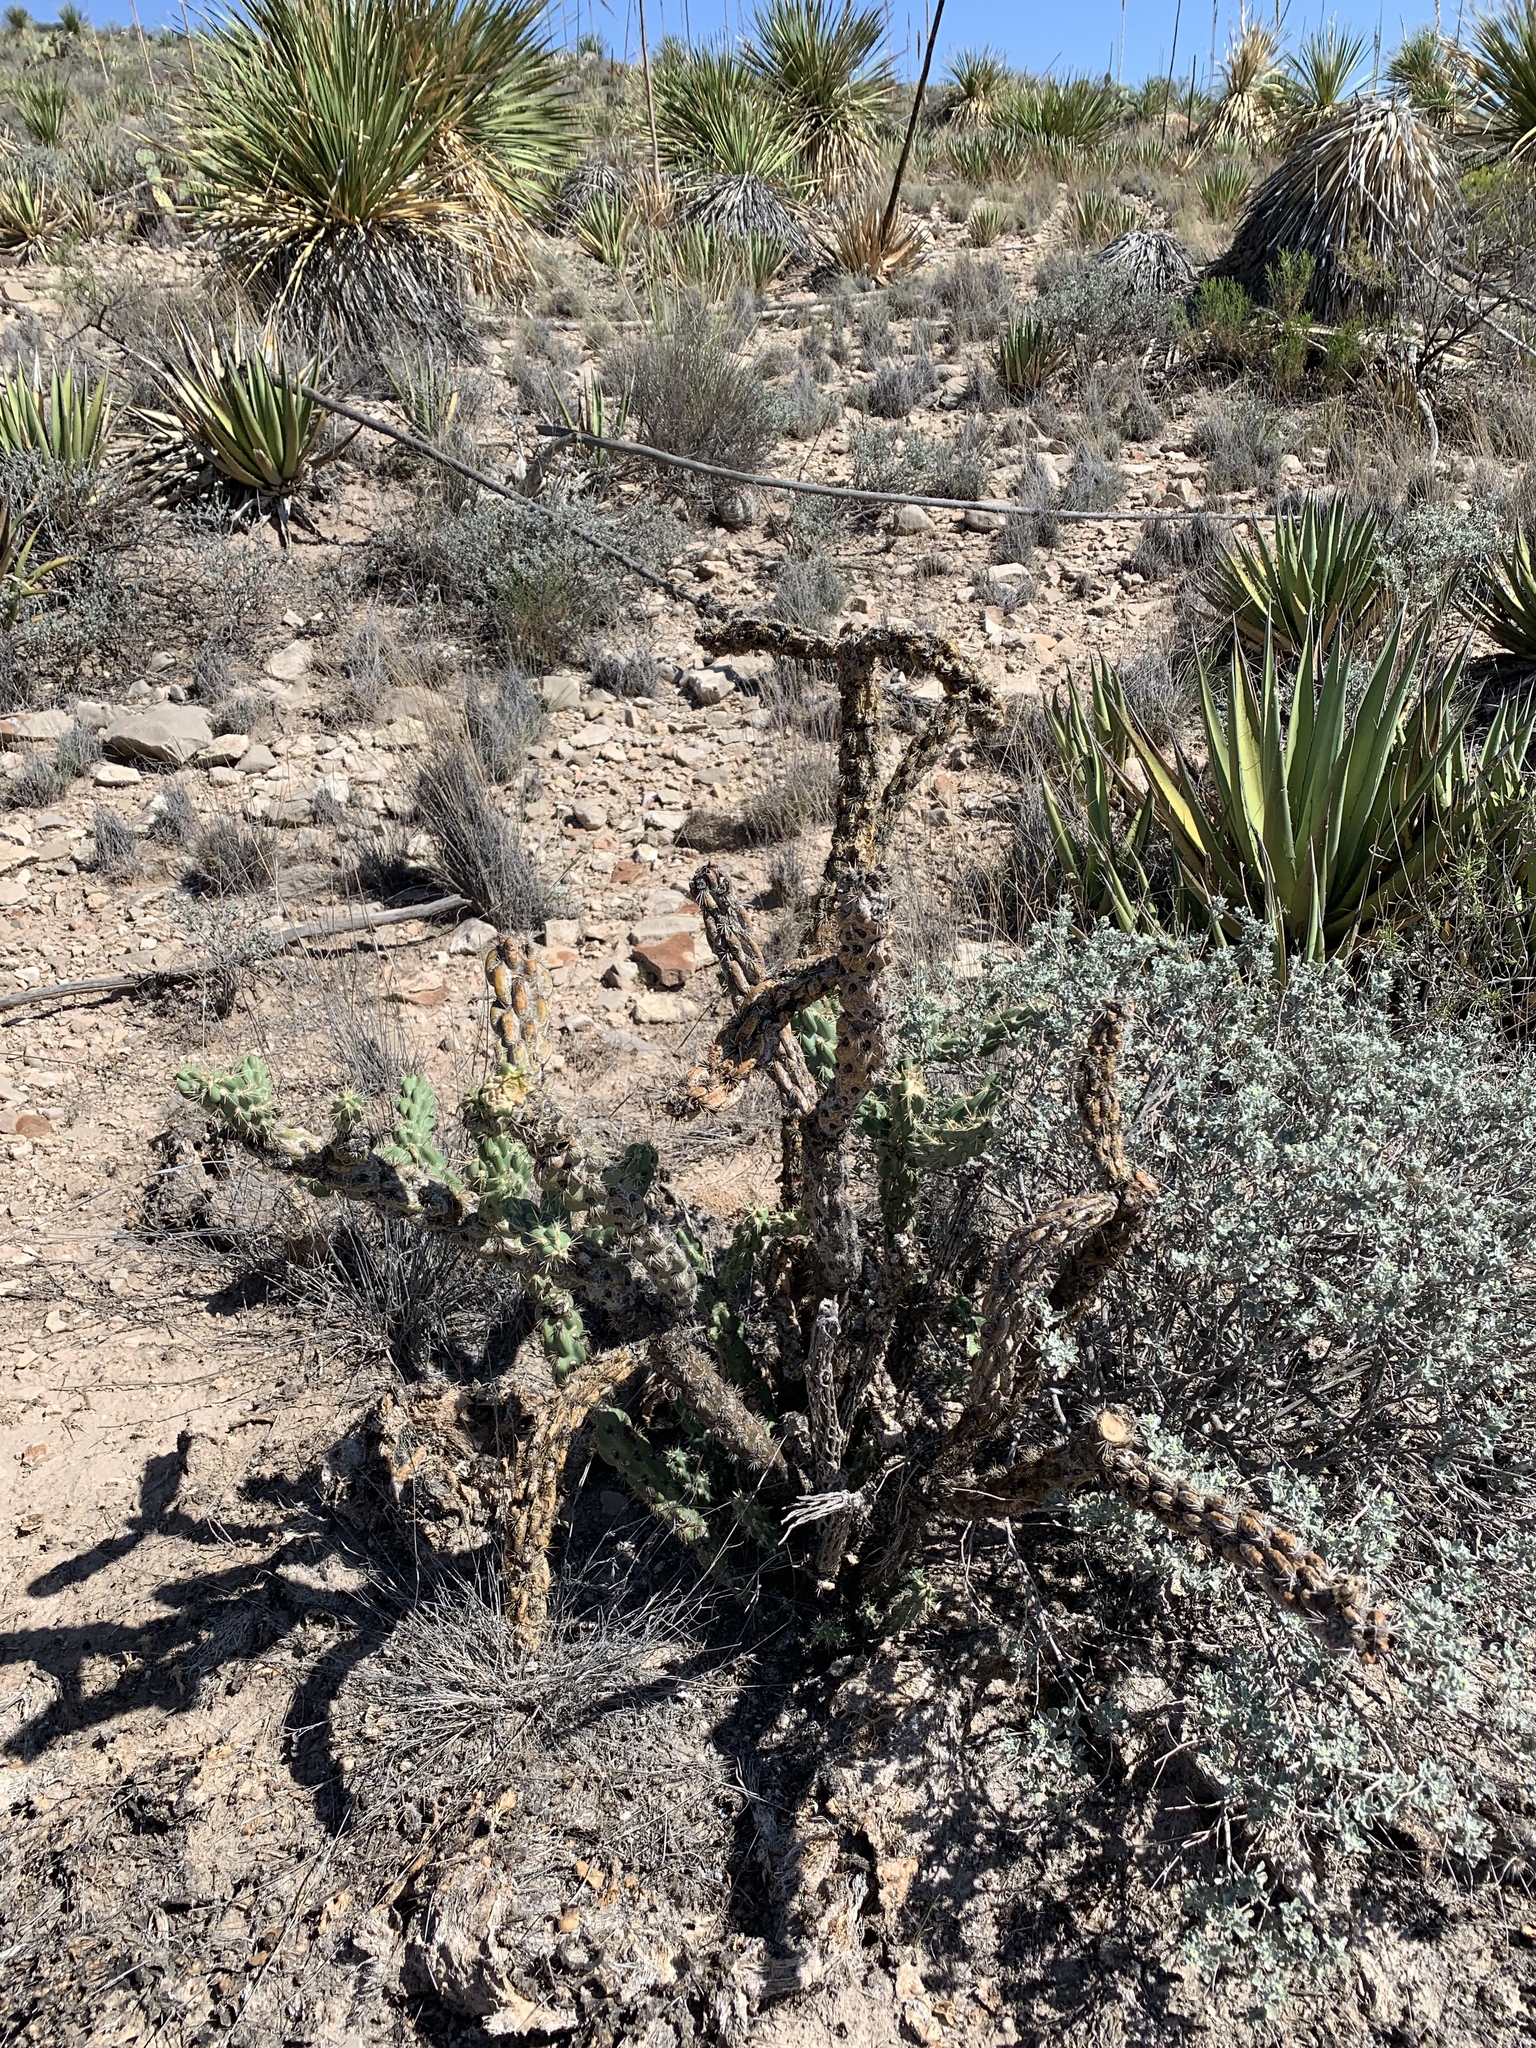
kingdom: Plantae
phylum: Tracheophyta
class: Magnoliopsida
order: Caryophyllales
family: Cactaceae
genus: Cylindropuntia
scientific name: Cylindropuntia imbricata
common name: Candelabrum cactus
